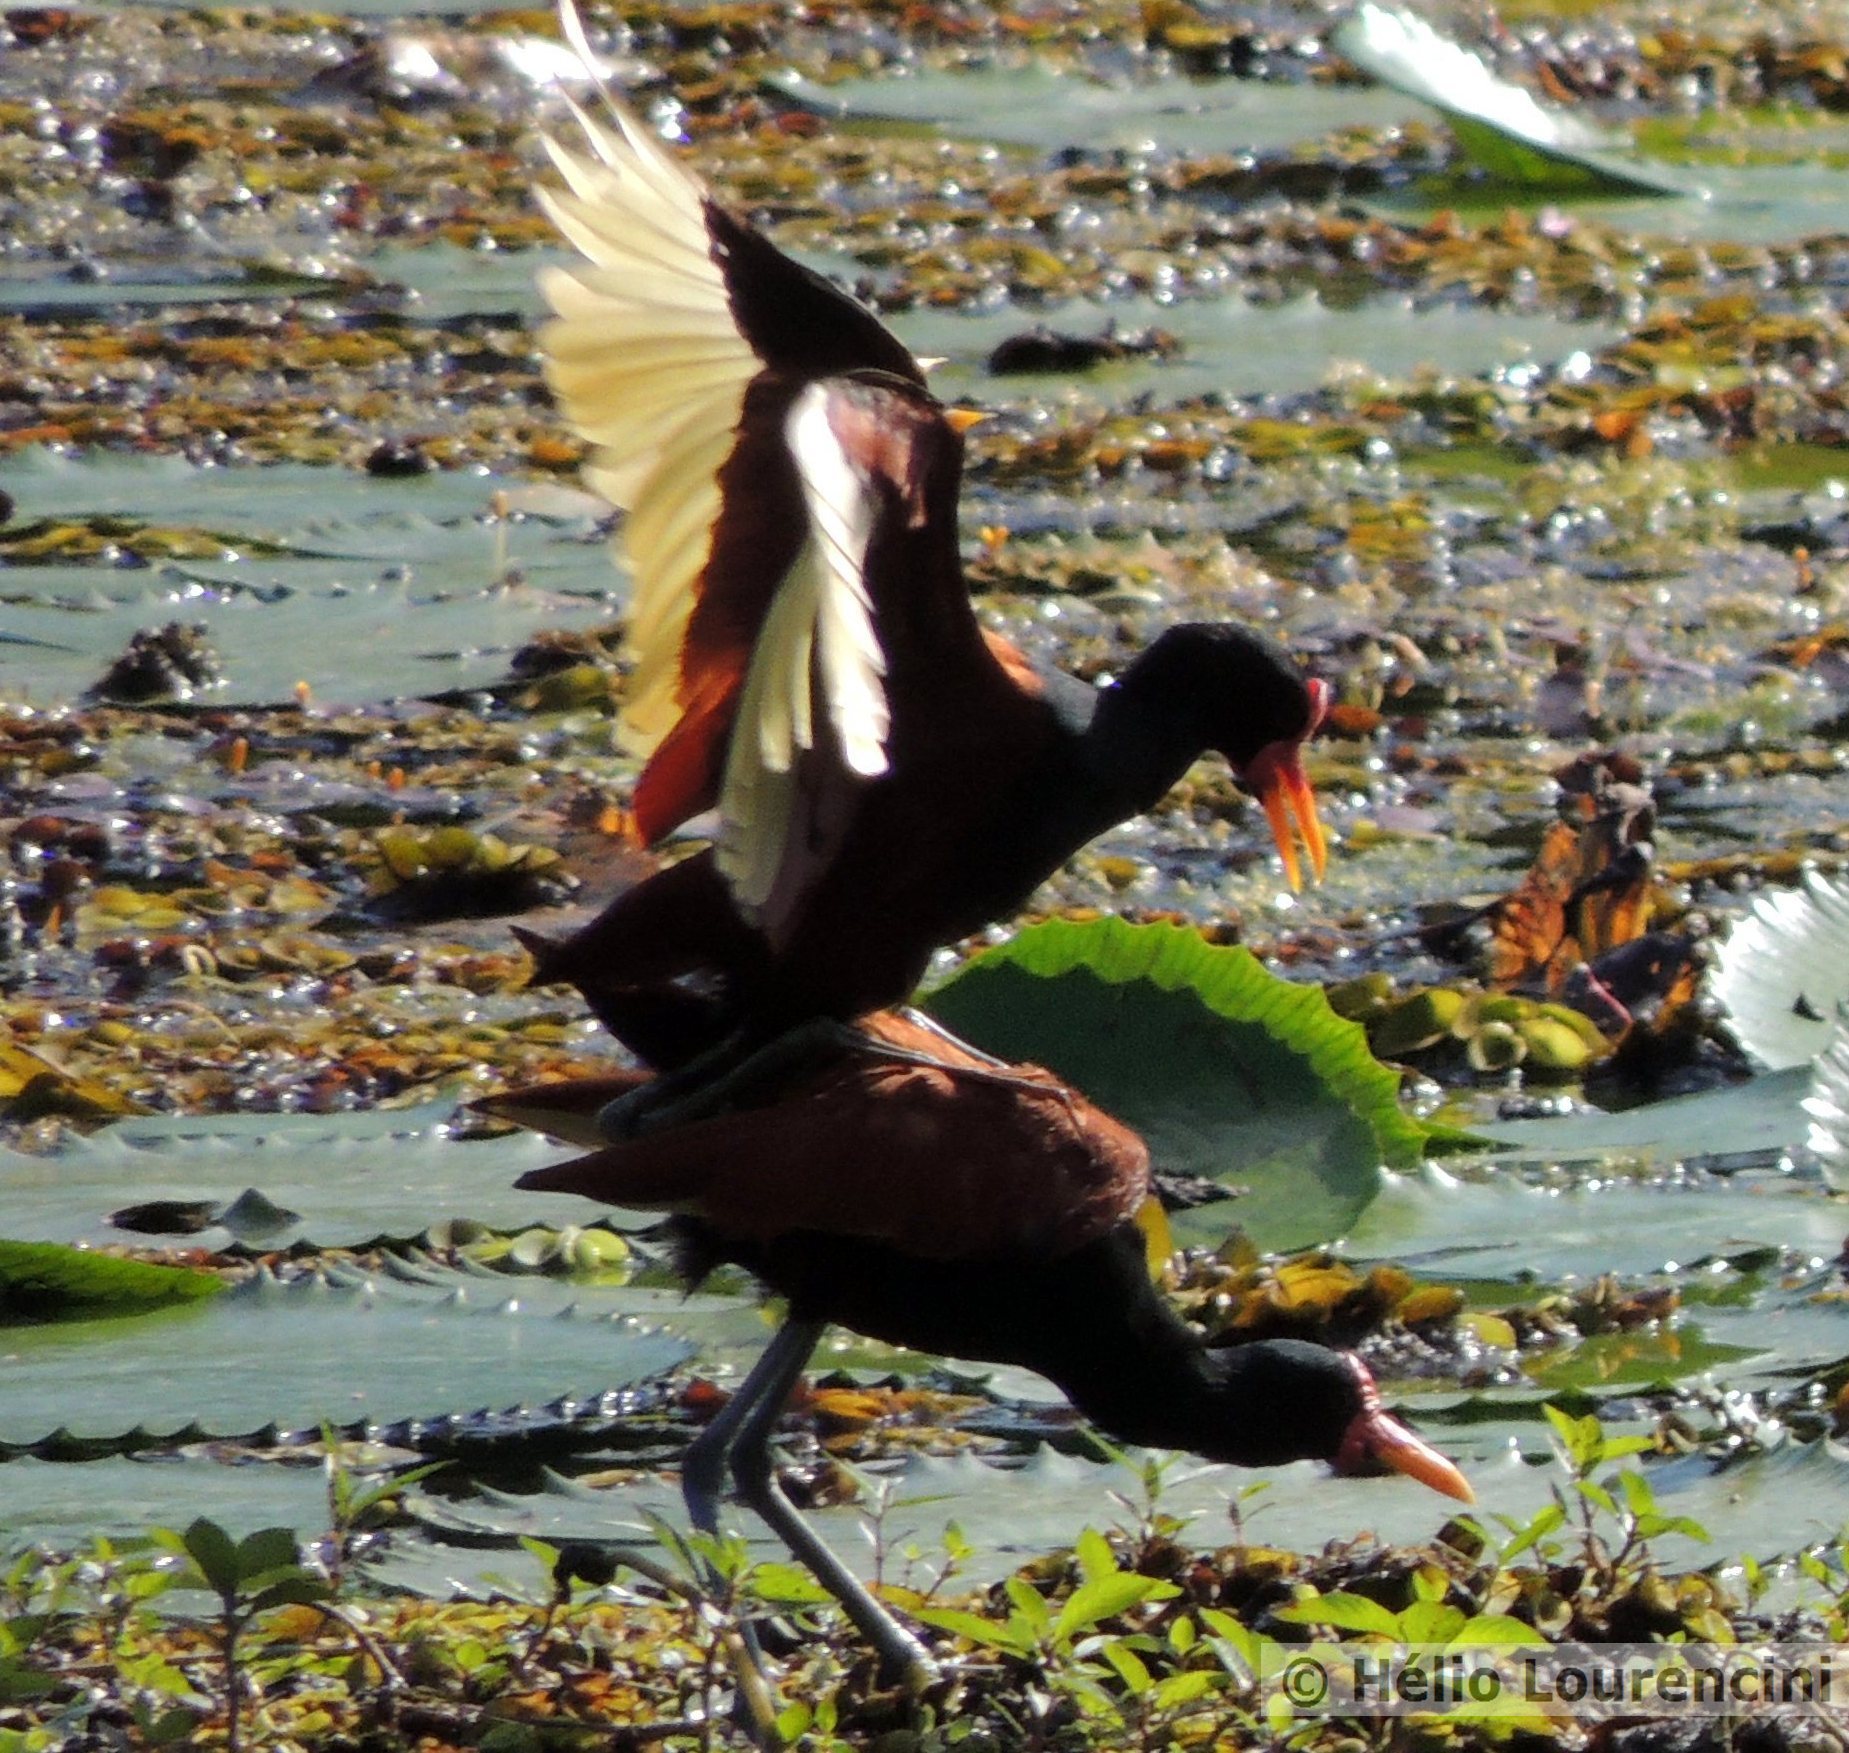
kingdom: Animalia
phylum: Chordata
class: Aves
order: Charadriiformes
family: Jacanidae
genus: Jacana
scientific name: Jacana jacana
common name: Wattled jacana
